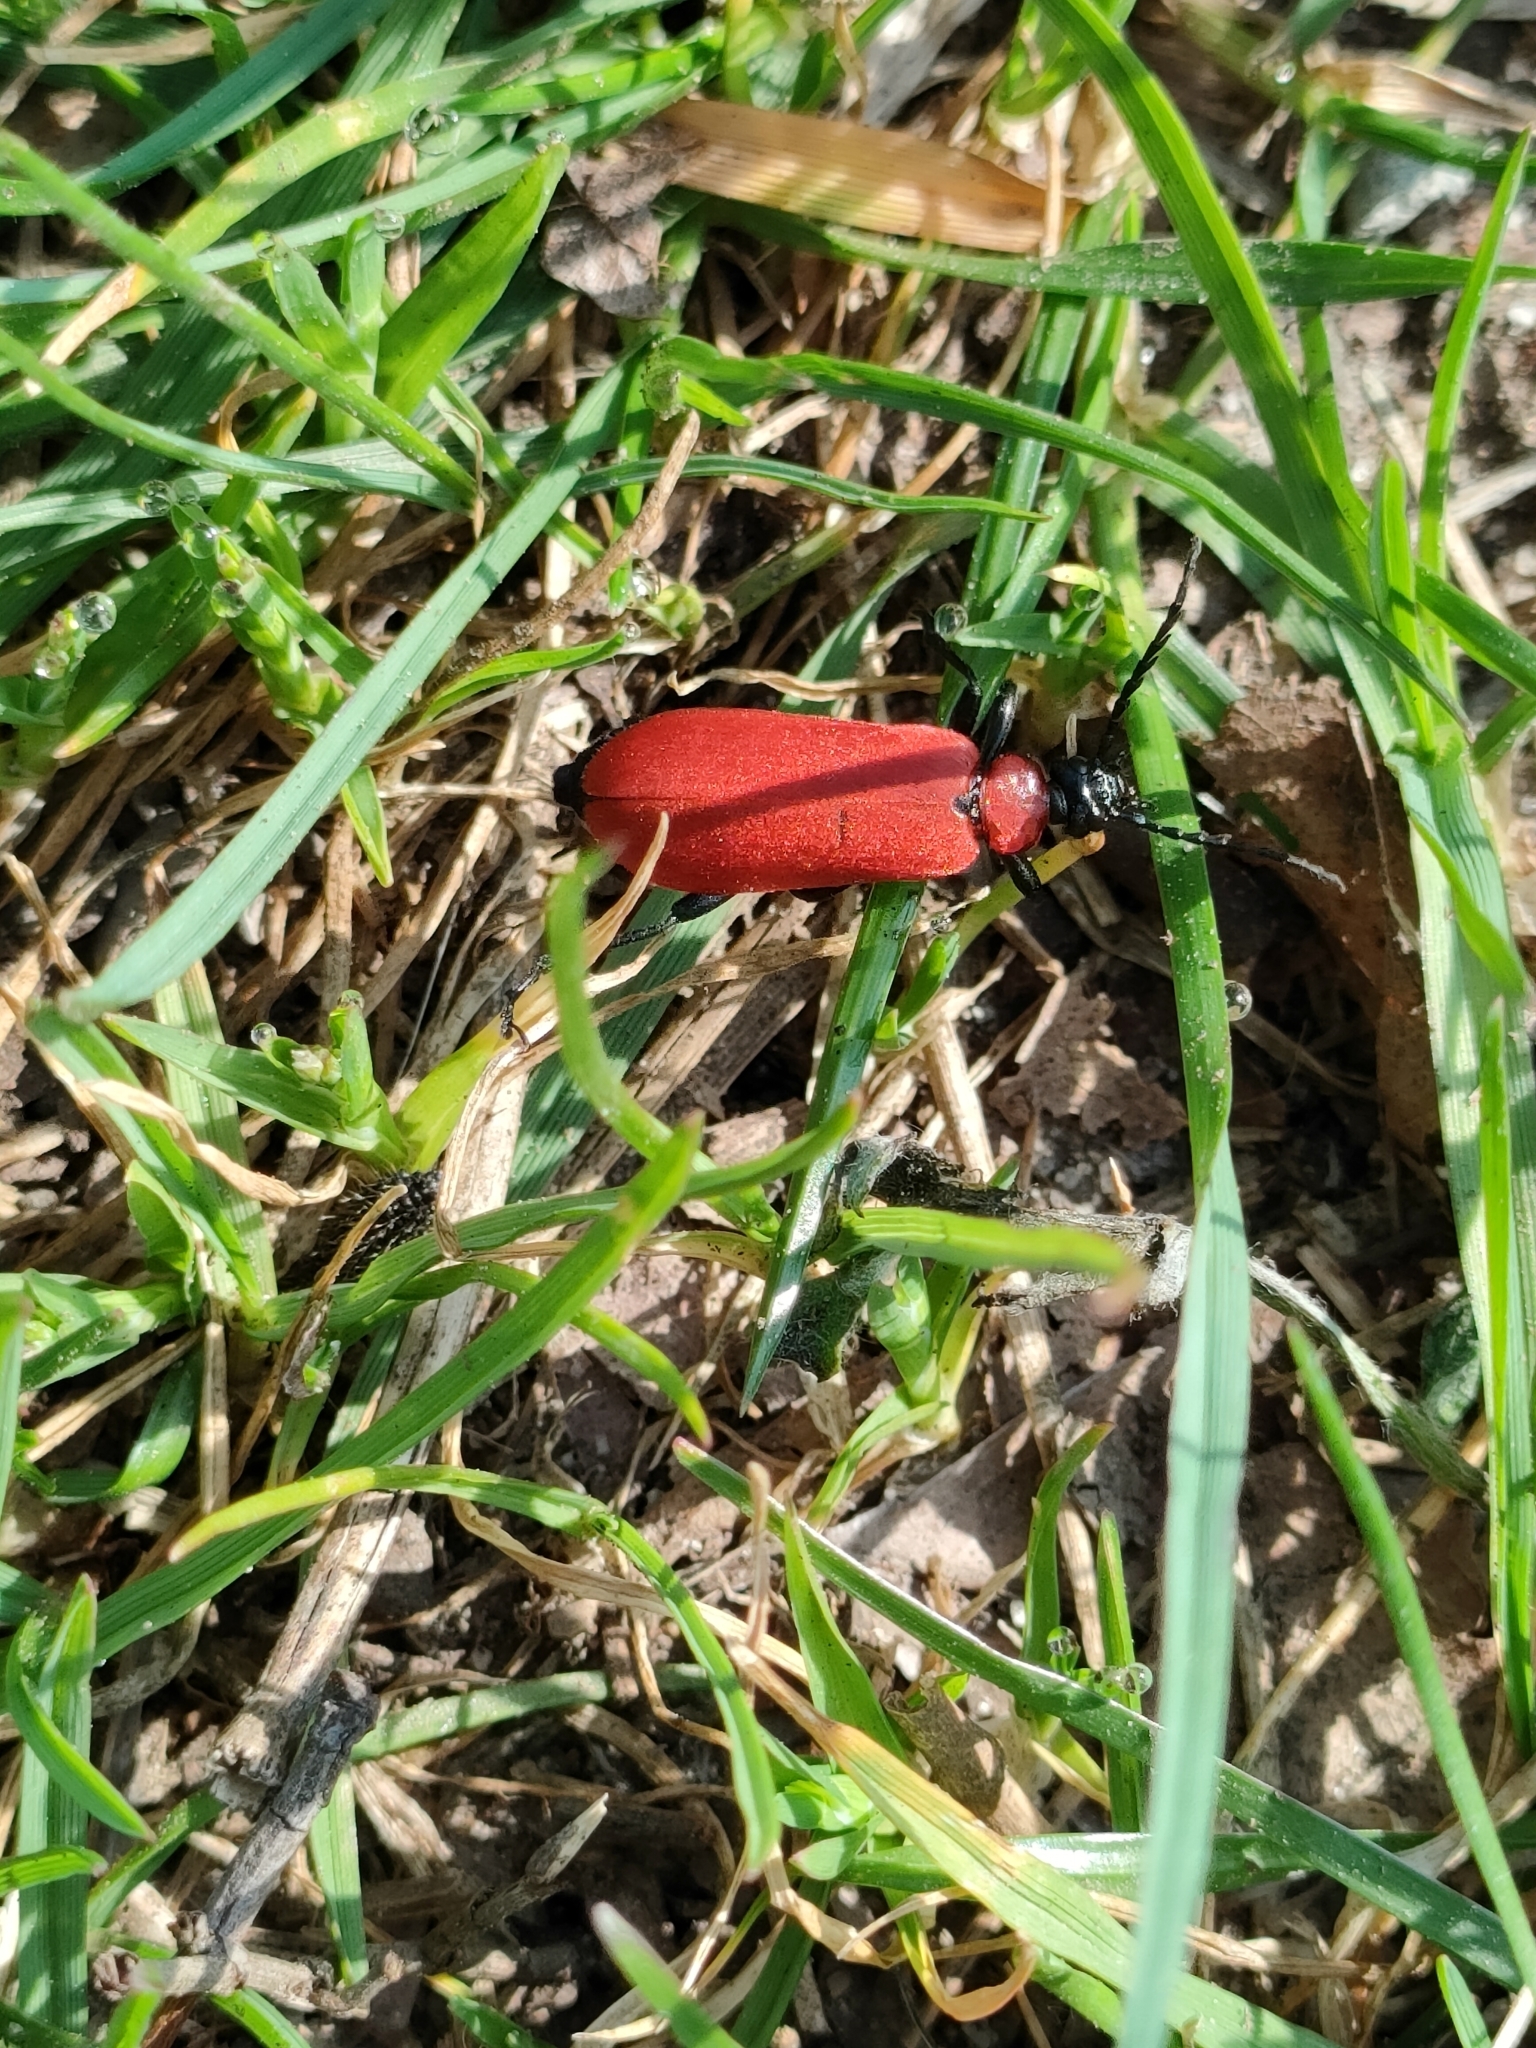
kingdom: Animalia
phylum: Arthropoda
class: Insecta
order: Coleoptera
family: Pyrochroidae
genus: Pyrochroa
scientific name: Pyrochroa coccinea
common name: Black-headed cardinal beetle
